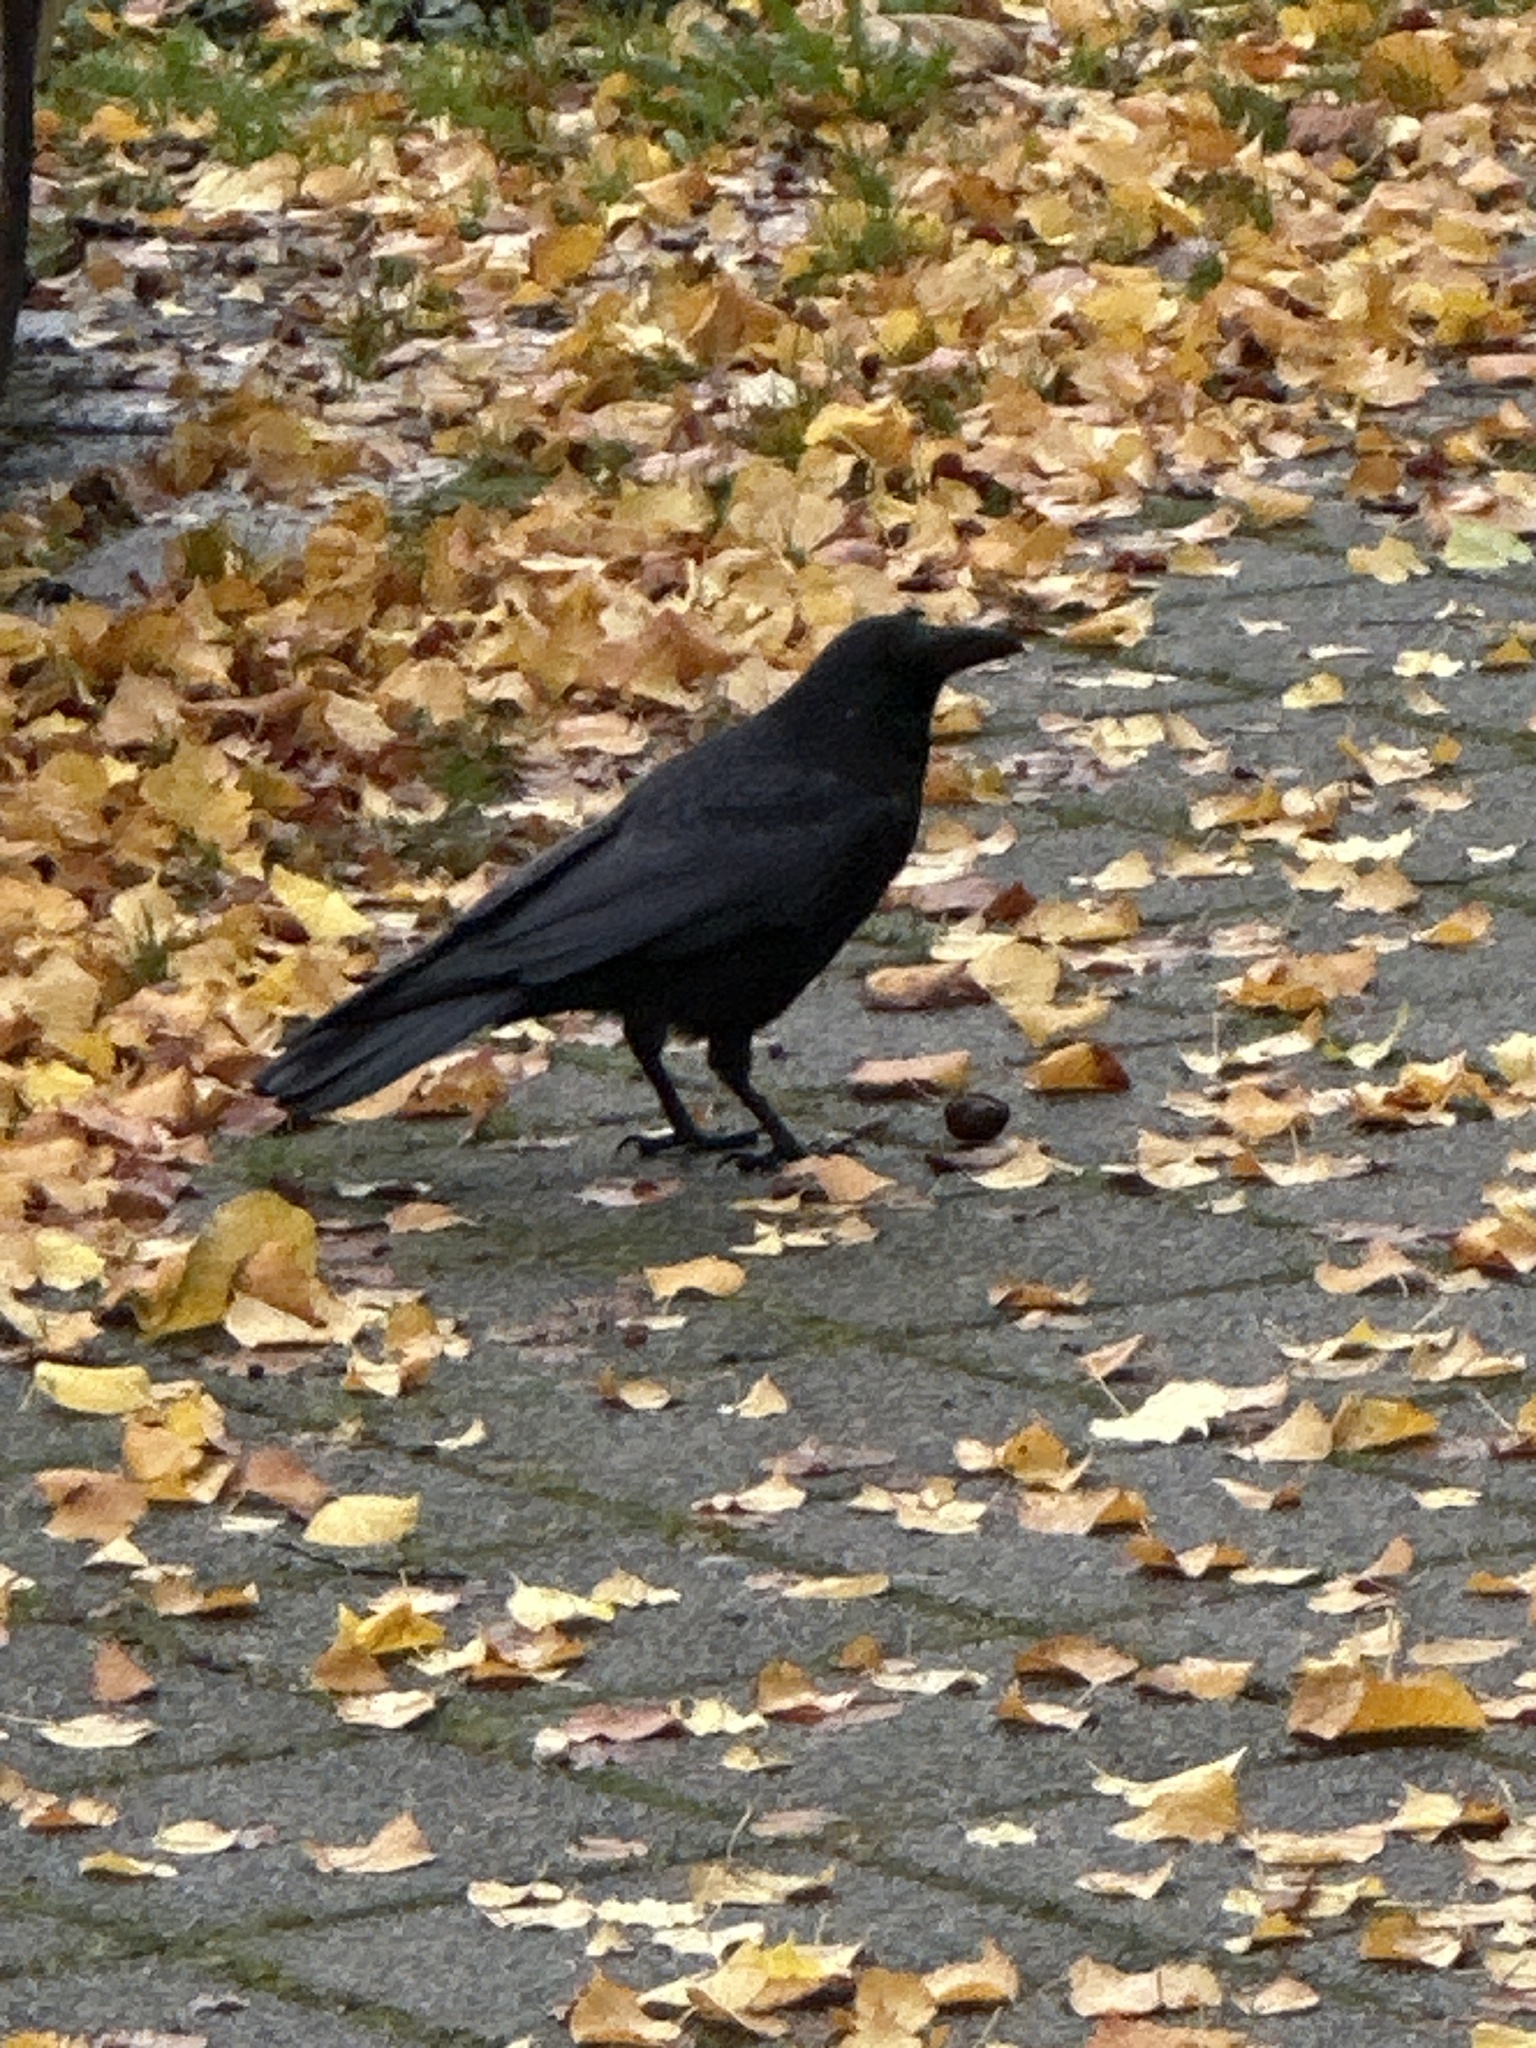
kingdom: Animalia
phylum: Chordata
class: Aves
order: Passeriformes
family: Corvidae
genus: Corvus
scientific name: Corvus corone
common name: Carrion crow
